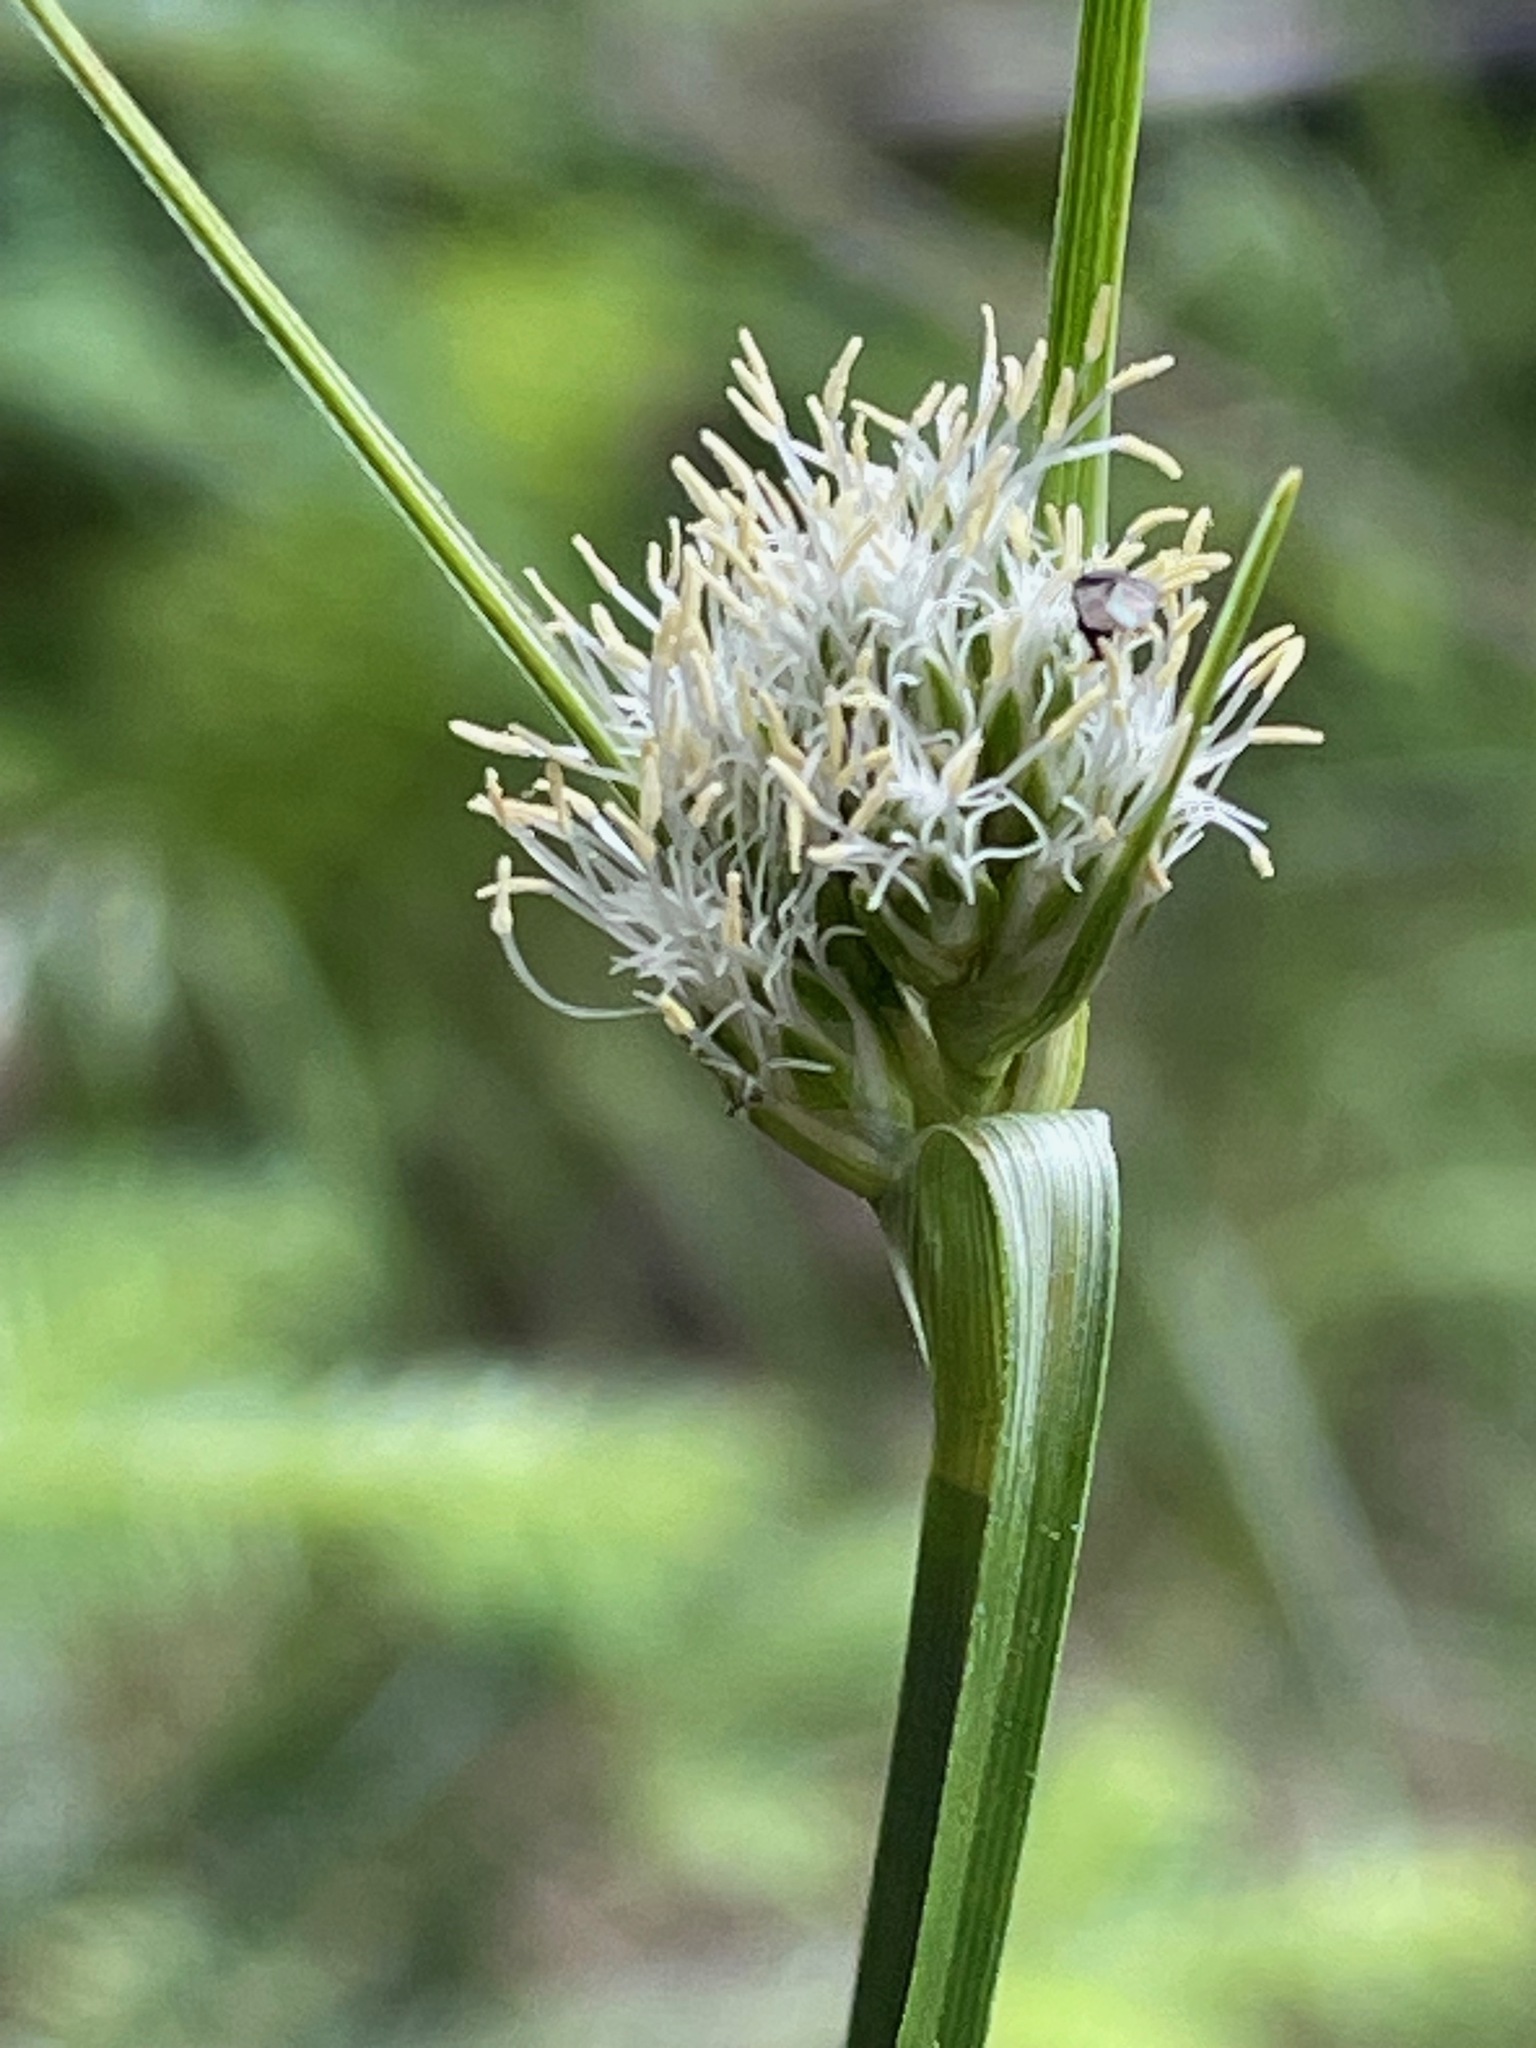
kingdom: Plantae
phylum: Tracheophyta
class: Liliopsida
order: Poales
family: Cyperaceae
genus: Eriophorum
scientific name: Eriophorum virginicum
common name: Tawny cottongrass
